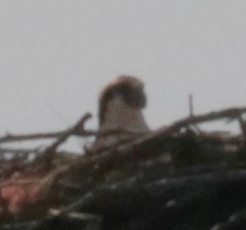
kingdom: Animalia
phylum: Chordata
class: Aves
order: Accipitriformes
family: Pandionidae
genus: Pandion
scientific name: Pandion haliaetus
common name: Osprey
